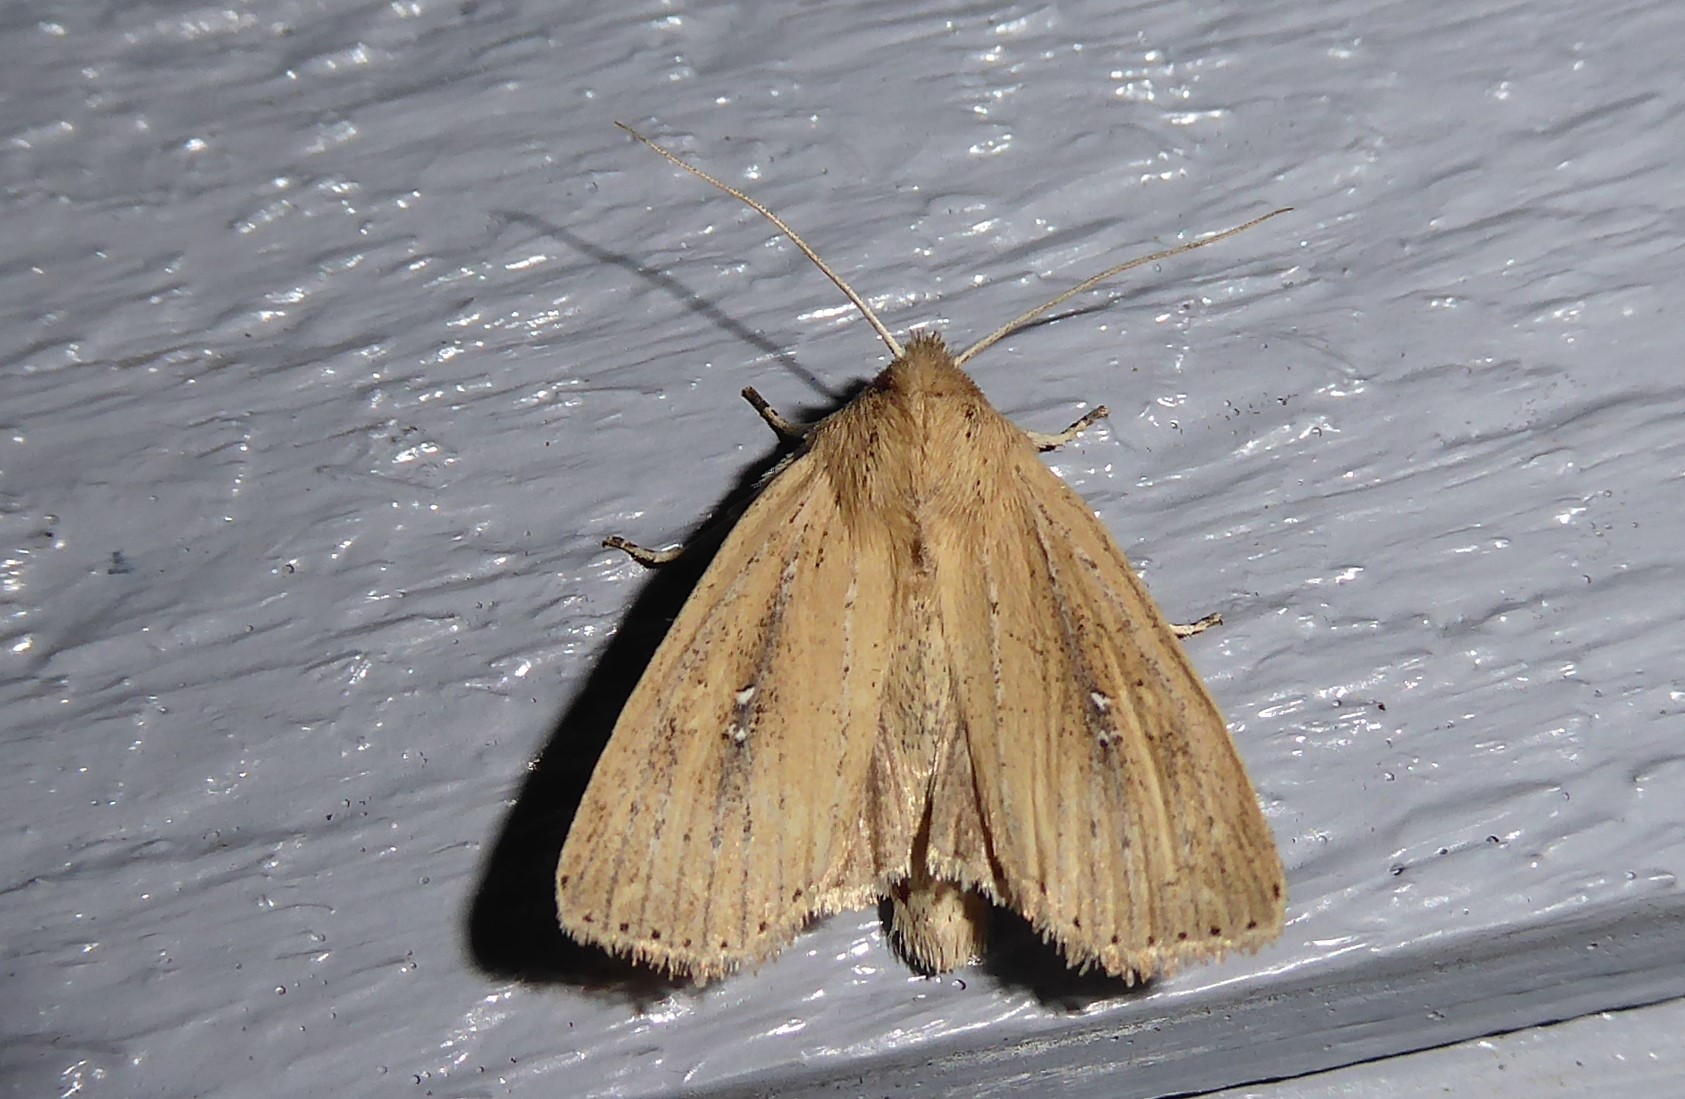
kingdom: Animalia
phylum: Arthropoda
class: Insecta
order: Lepidoptera
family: Noctuidae
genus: Ichneutica
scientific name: Ichneutica
